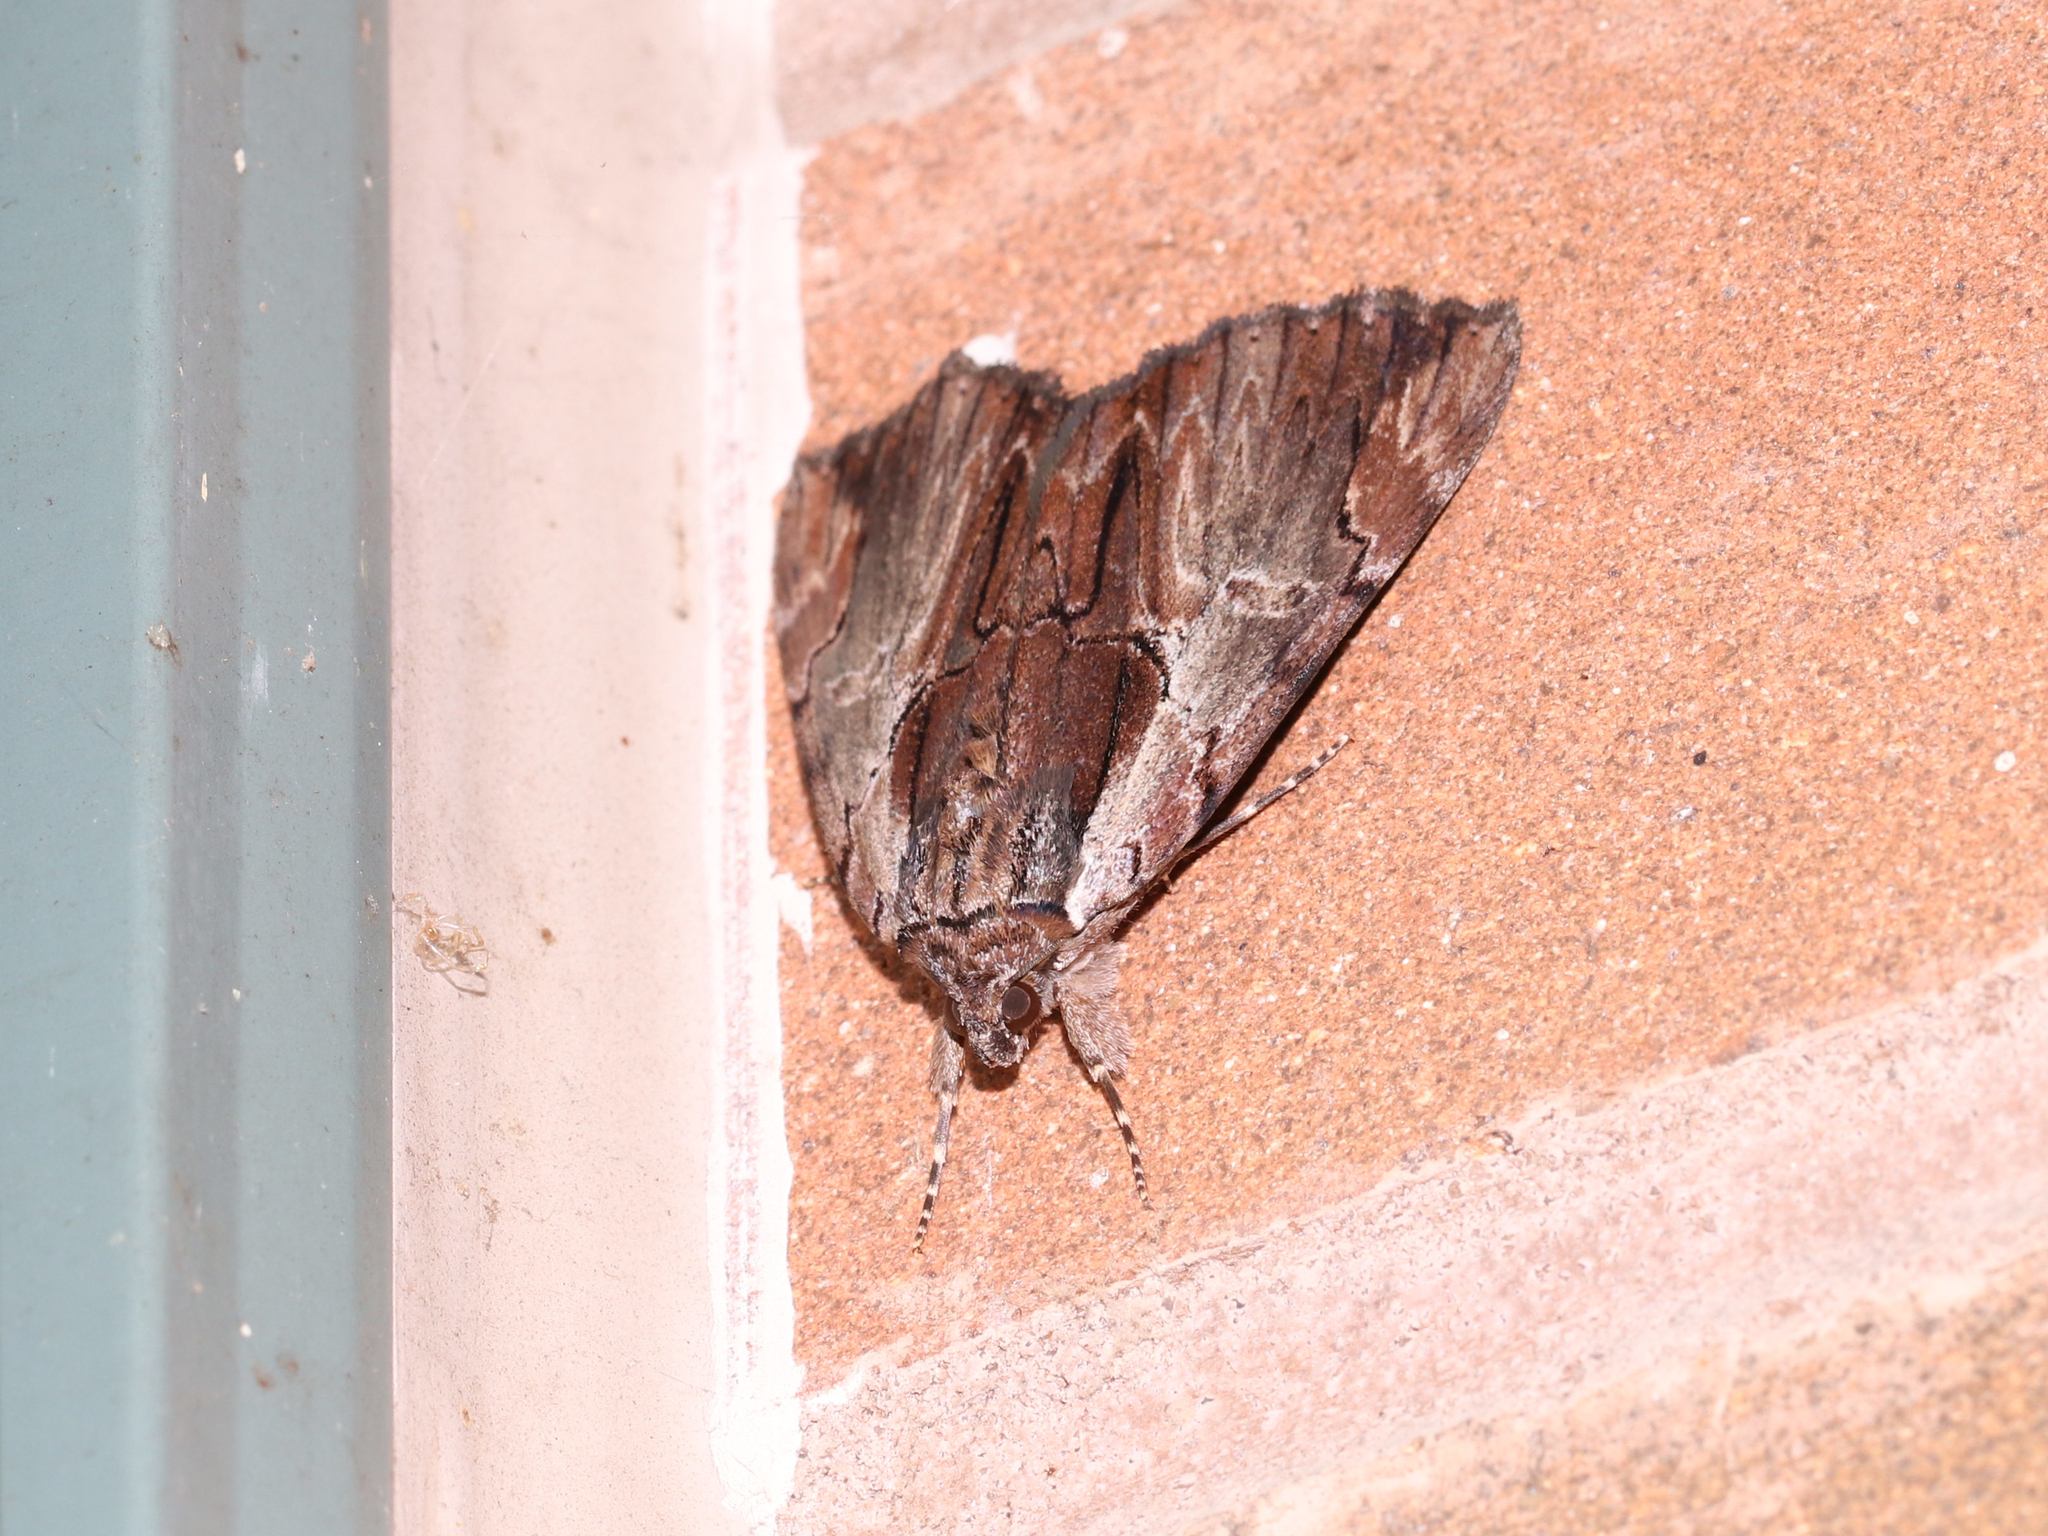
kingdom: Animalia
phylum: Arthropoda
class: Insecta
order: Lepidoptera
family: Erebidae
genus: Catocala
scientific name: Catocala ultronia
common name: Ultronia underwing
